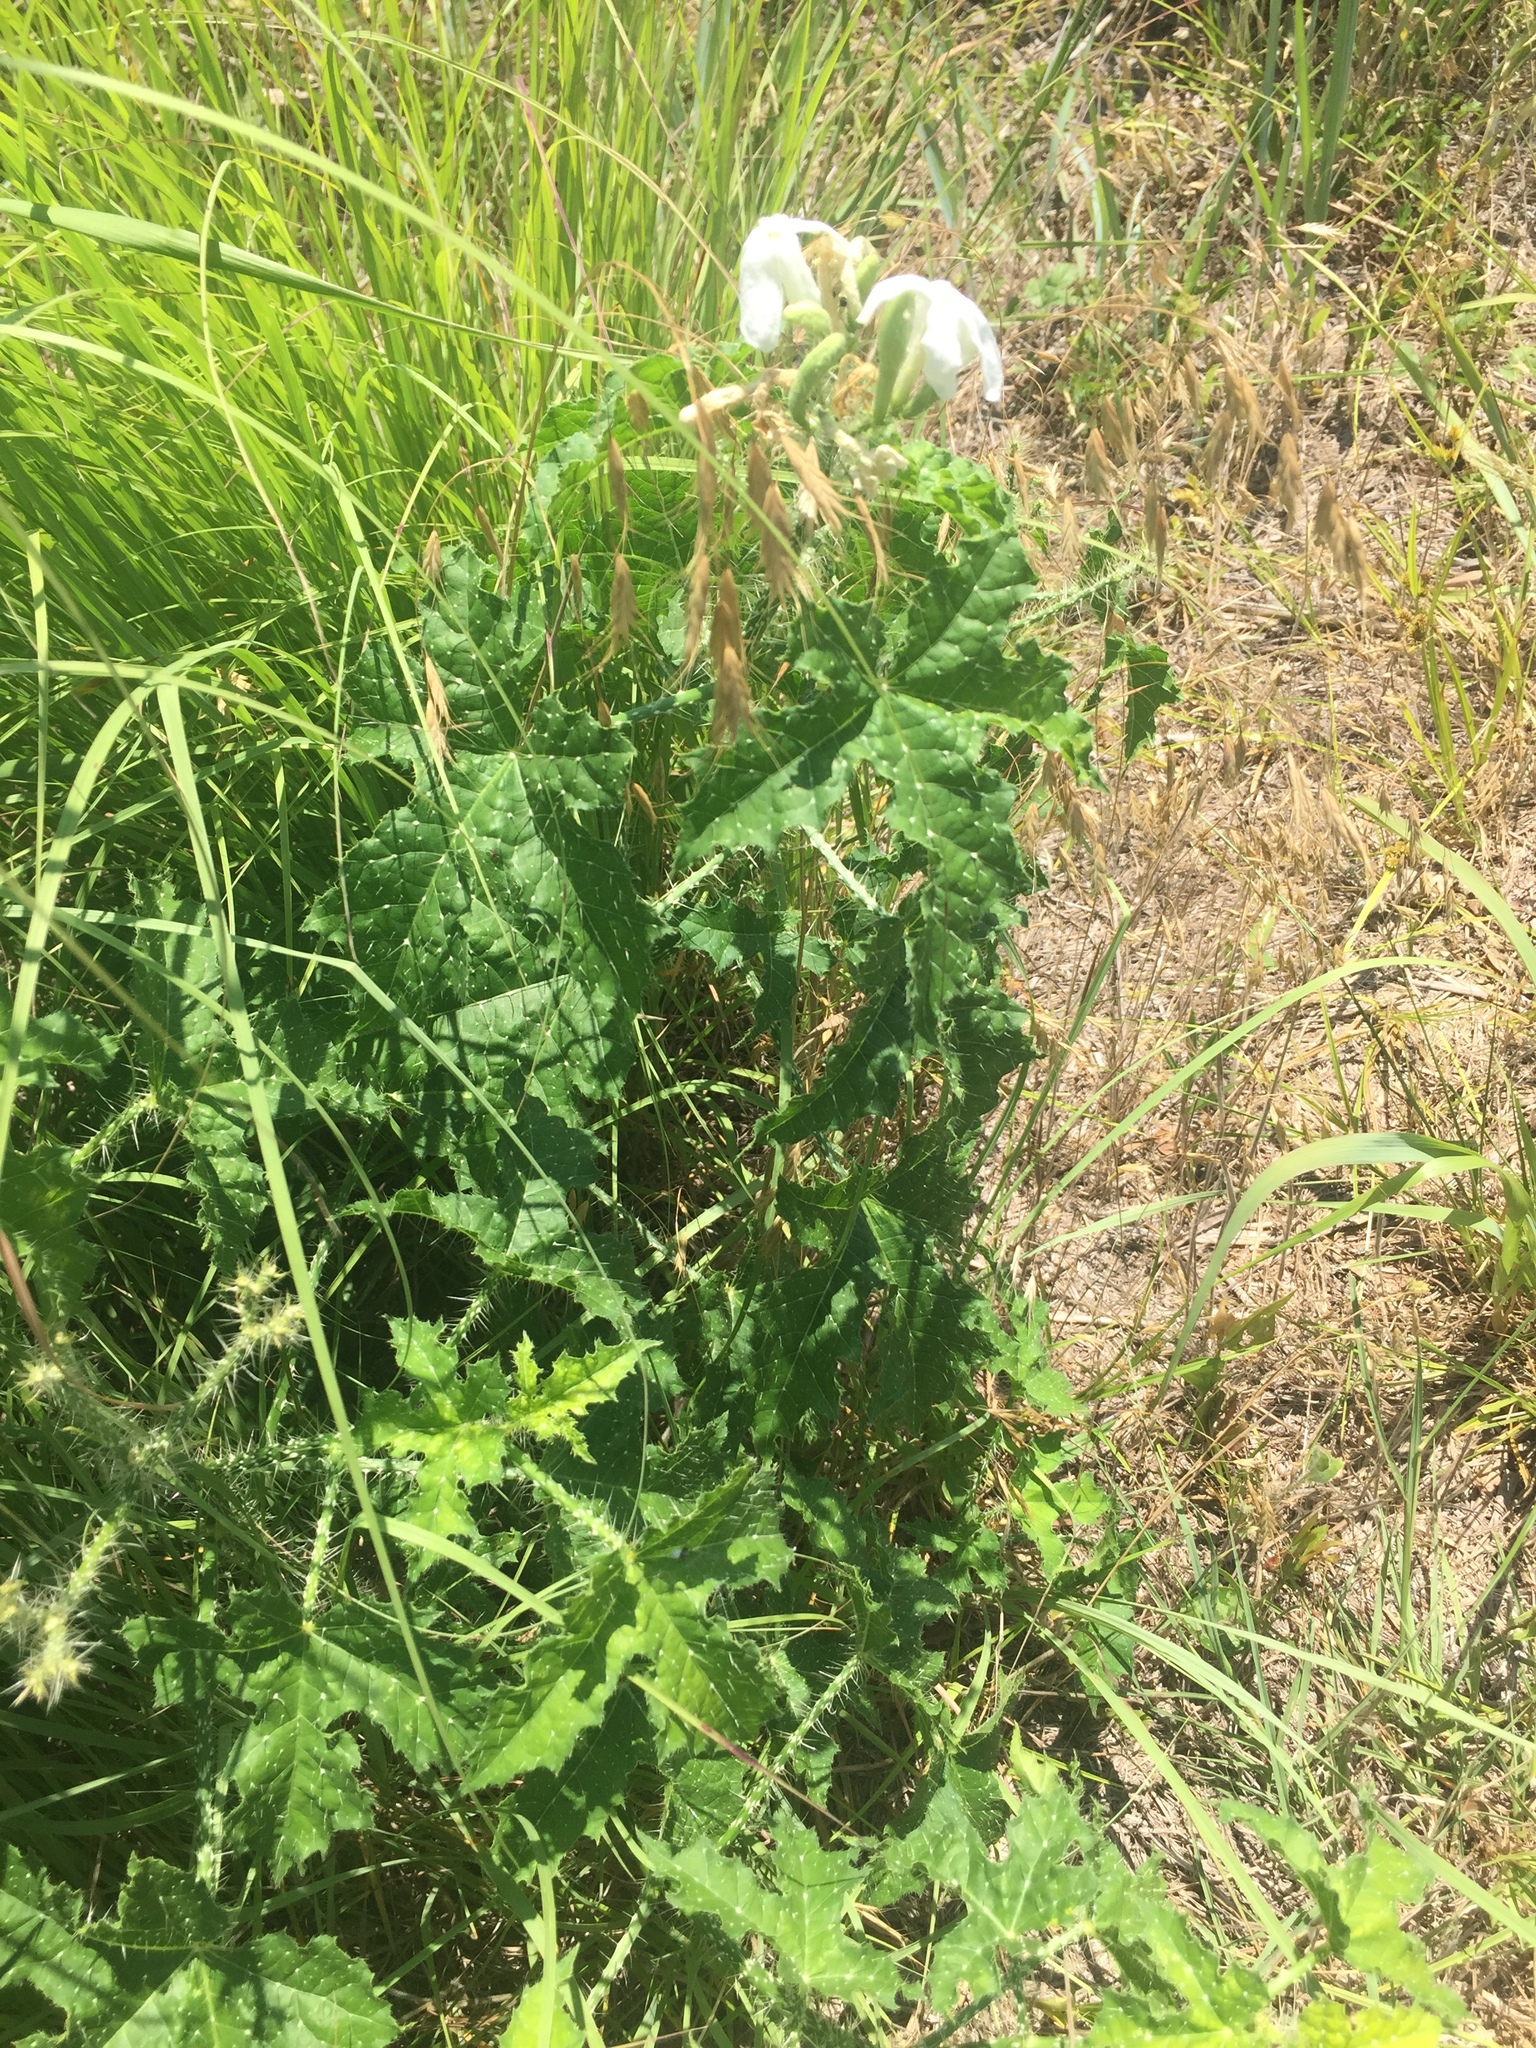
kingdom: Plantae
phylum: Tracheophyta
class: Magnoliopsida
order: Malpighiales
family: Euphorbiaceae
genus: Cnidoscolus
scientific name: Cnidoscolus texanus
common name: Texas bull-nettle
